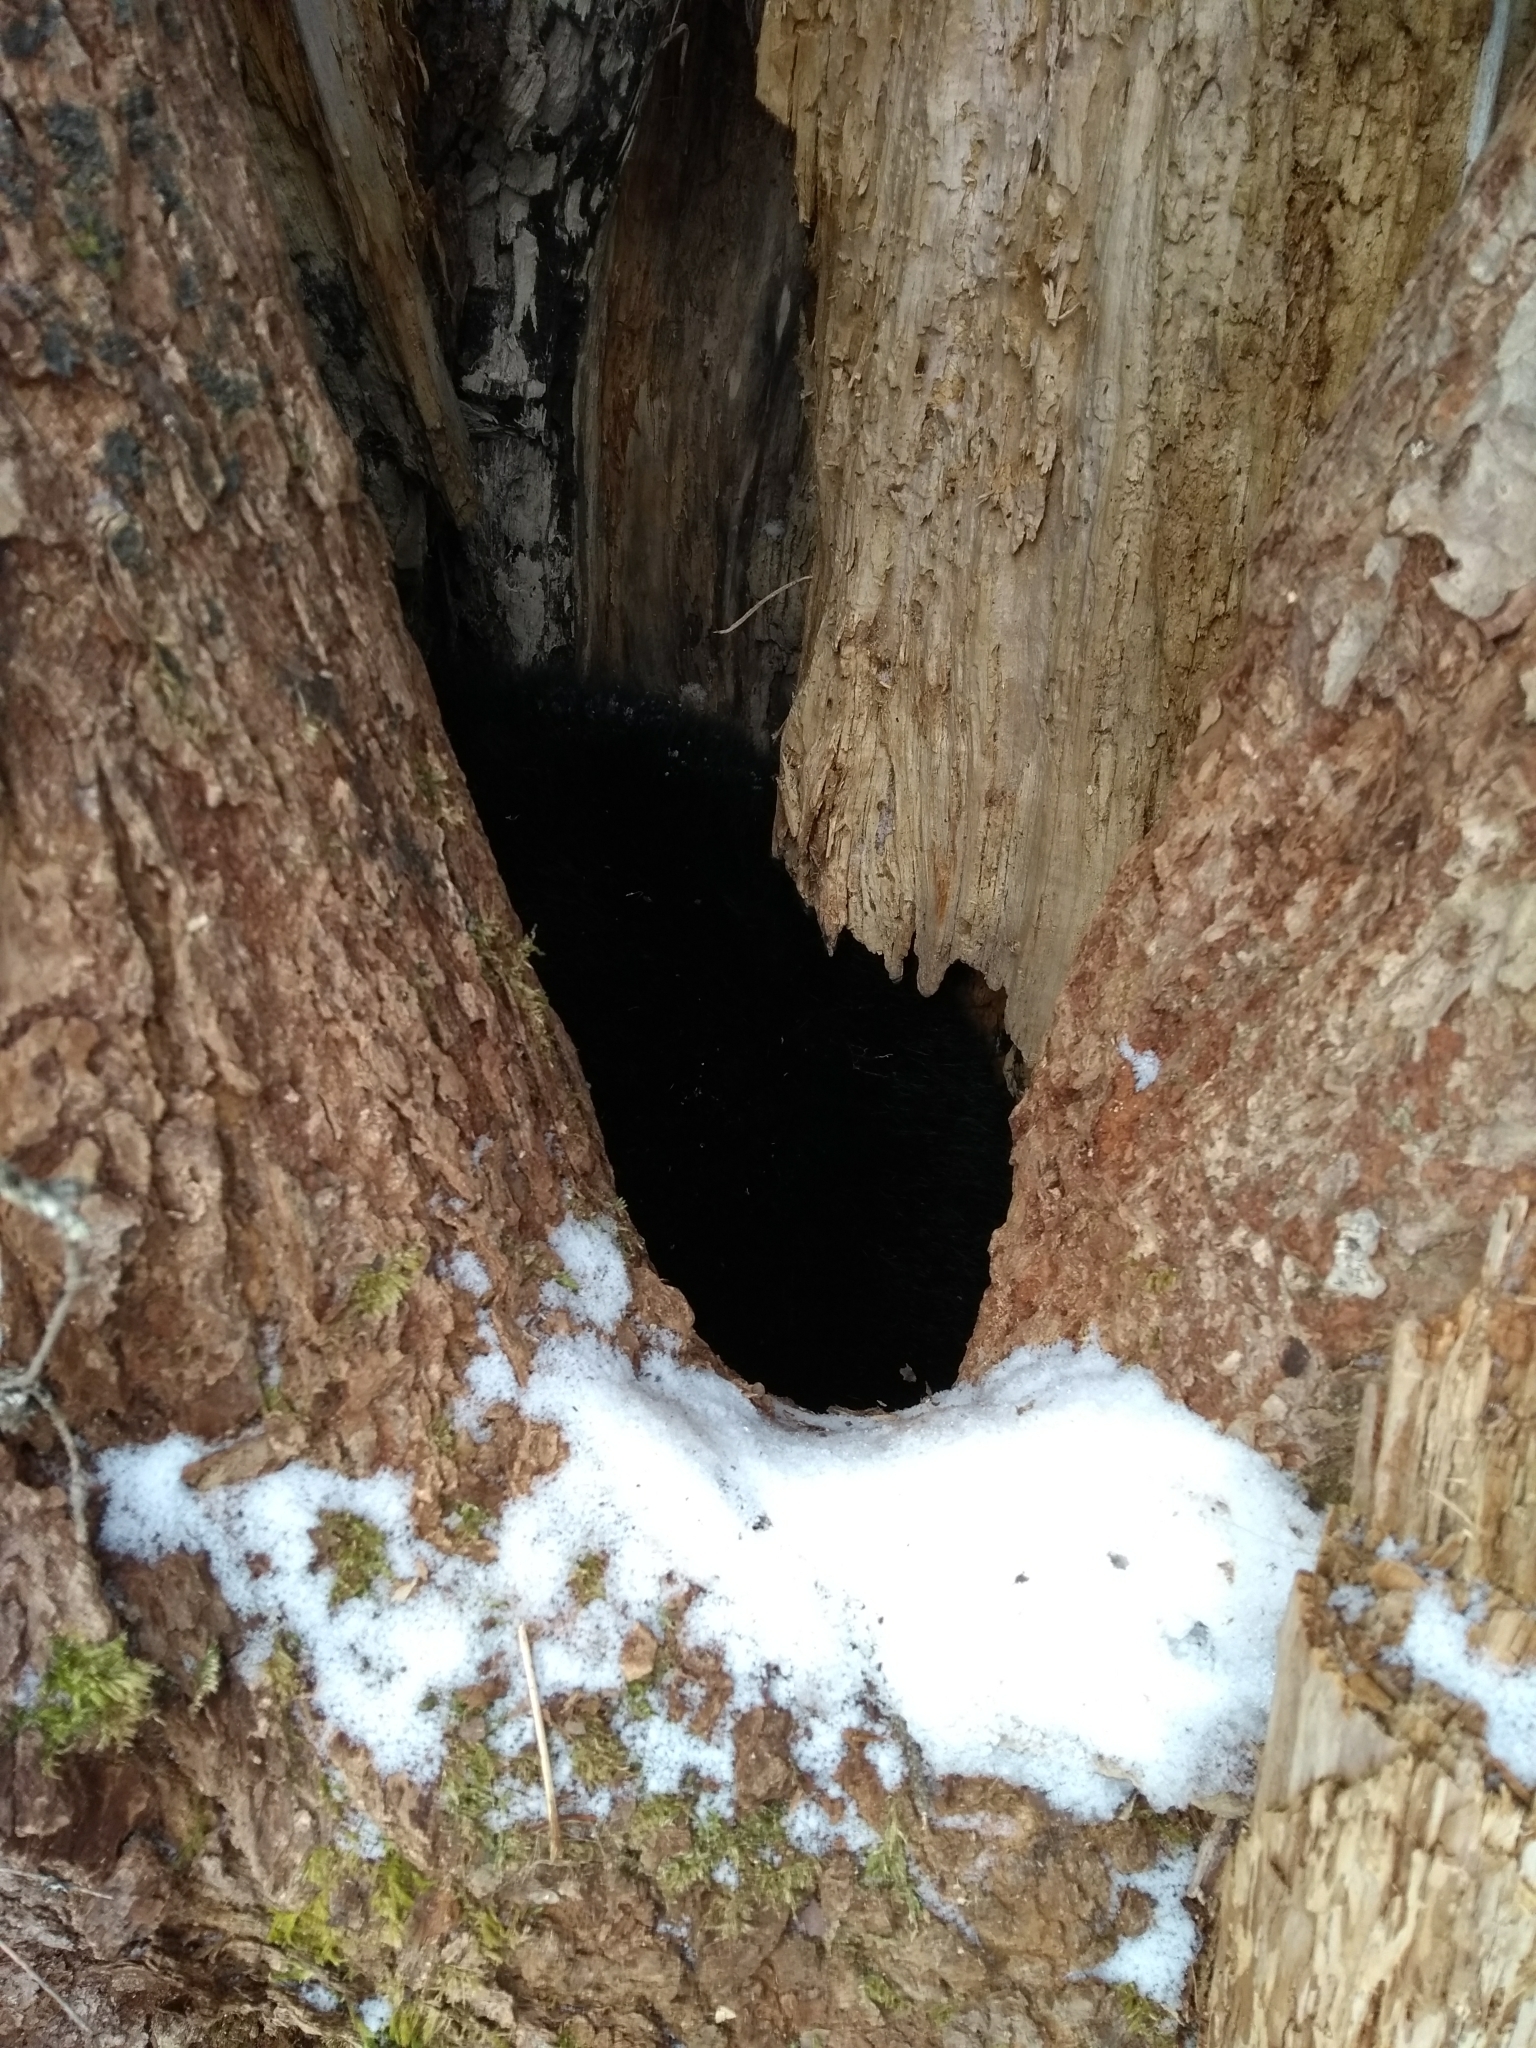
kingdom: Animalia
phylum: Chordata
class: Mammalia
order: Carnivora
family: Ursidae
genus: Ursus
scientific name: Ursus americanus
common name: American black bear
